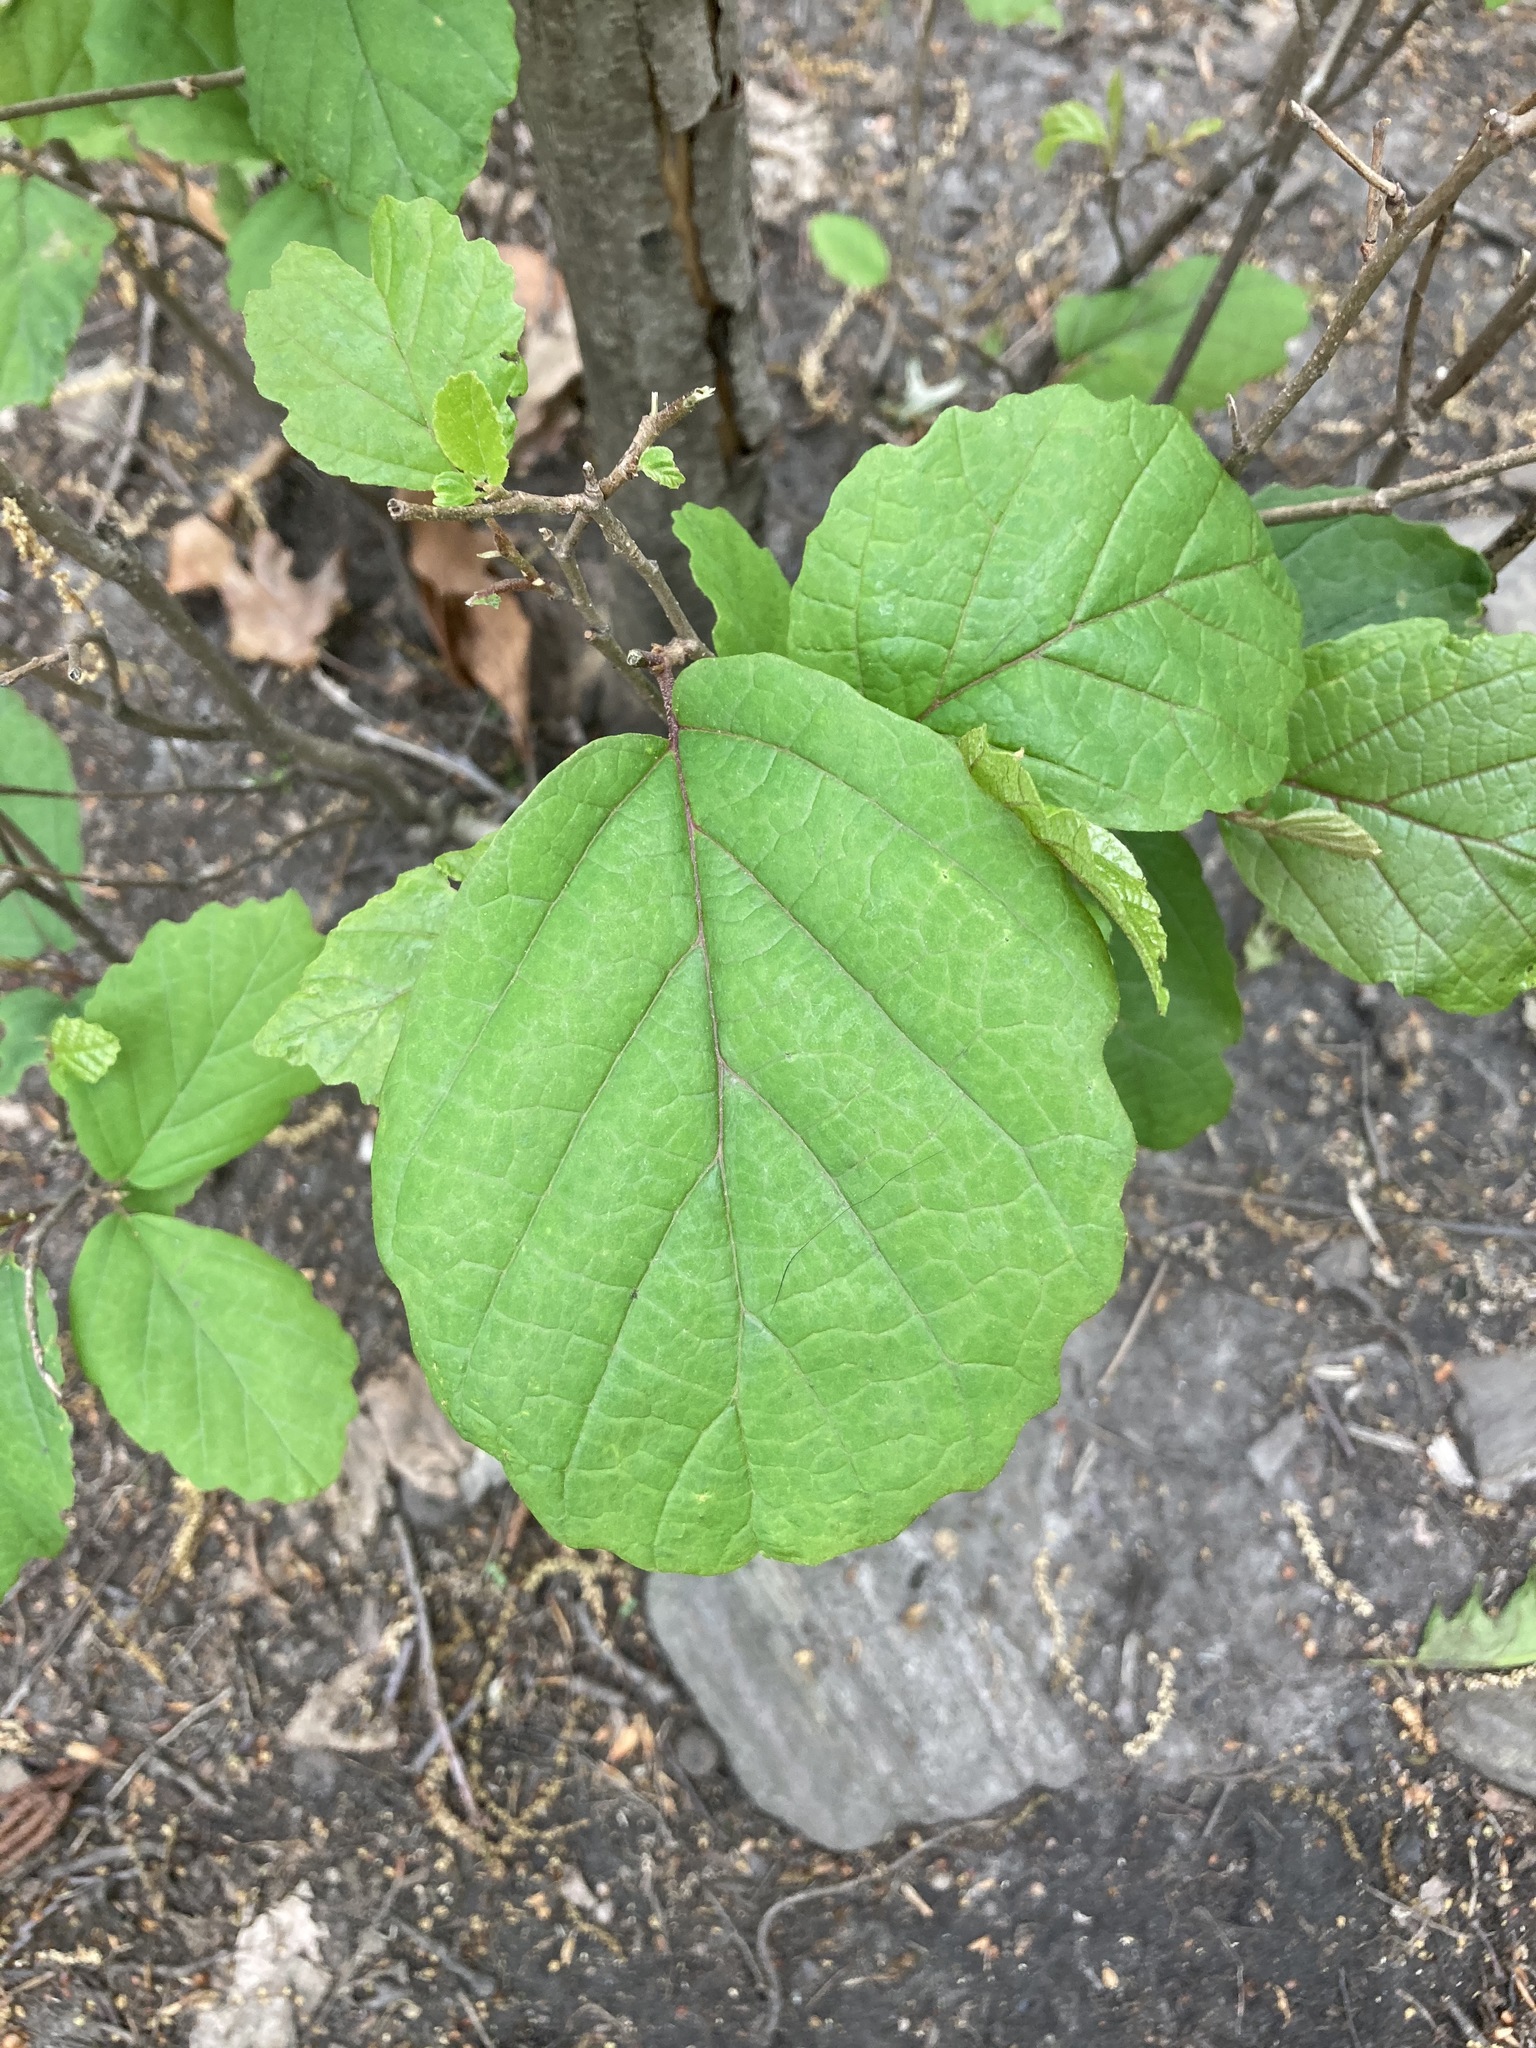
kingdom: Plantae
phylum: Tracheophyta
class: Magnoliopsida
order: Saxifragales
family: Hamamelidaceae
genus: Hamamelis
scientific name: Hamamelis virginiana
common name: Witch-hazel
